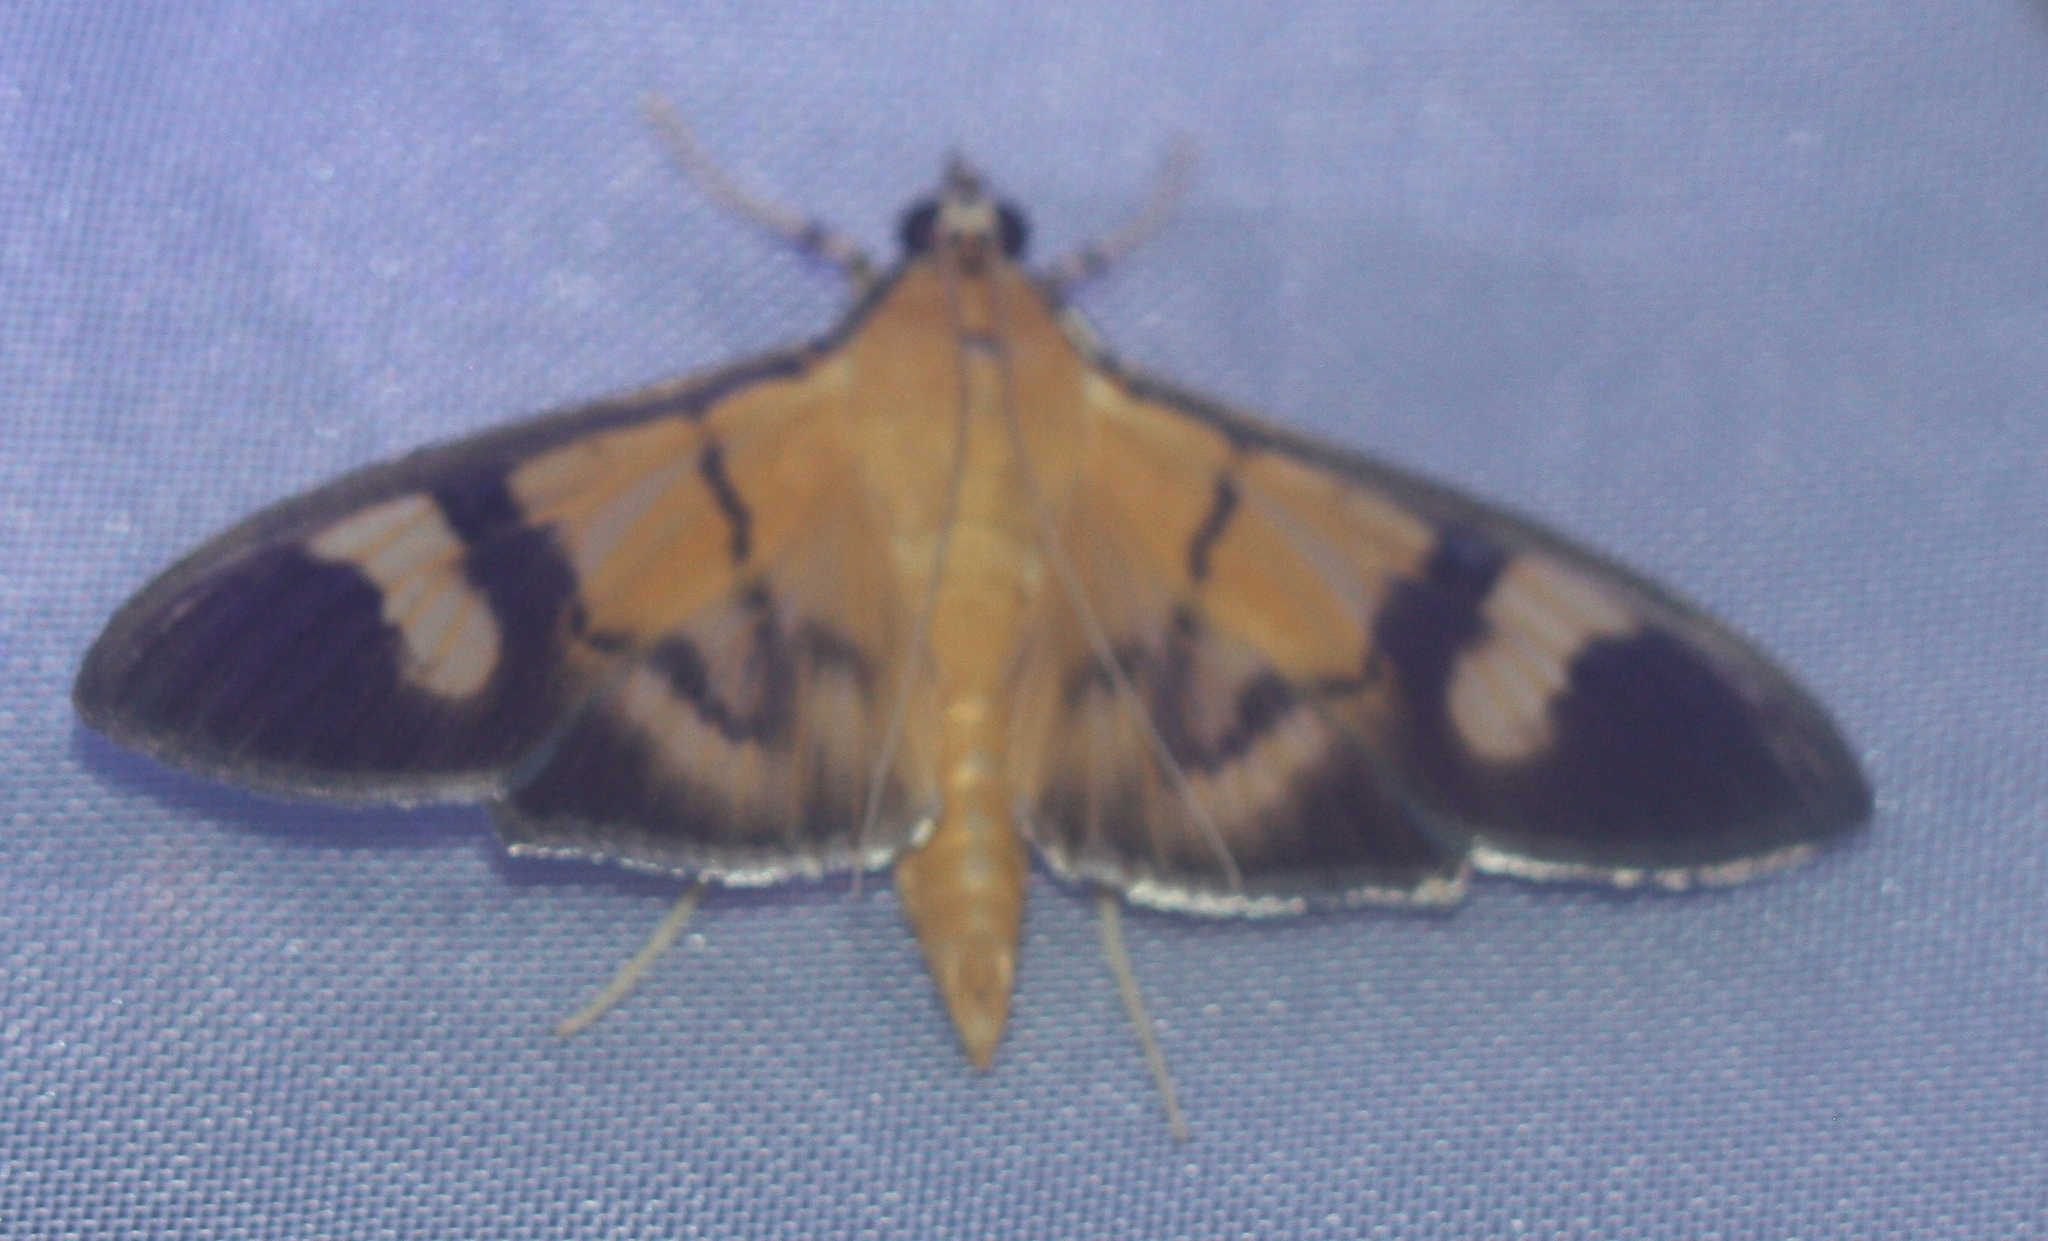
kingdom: Animalia
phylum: Arthropoda
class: Insecta
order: Lepidoptera
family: Crambidae
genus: Phostria
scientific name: Phostria dohrni
